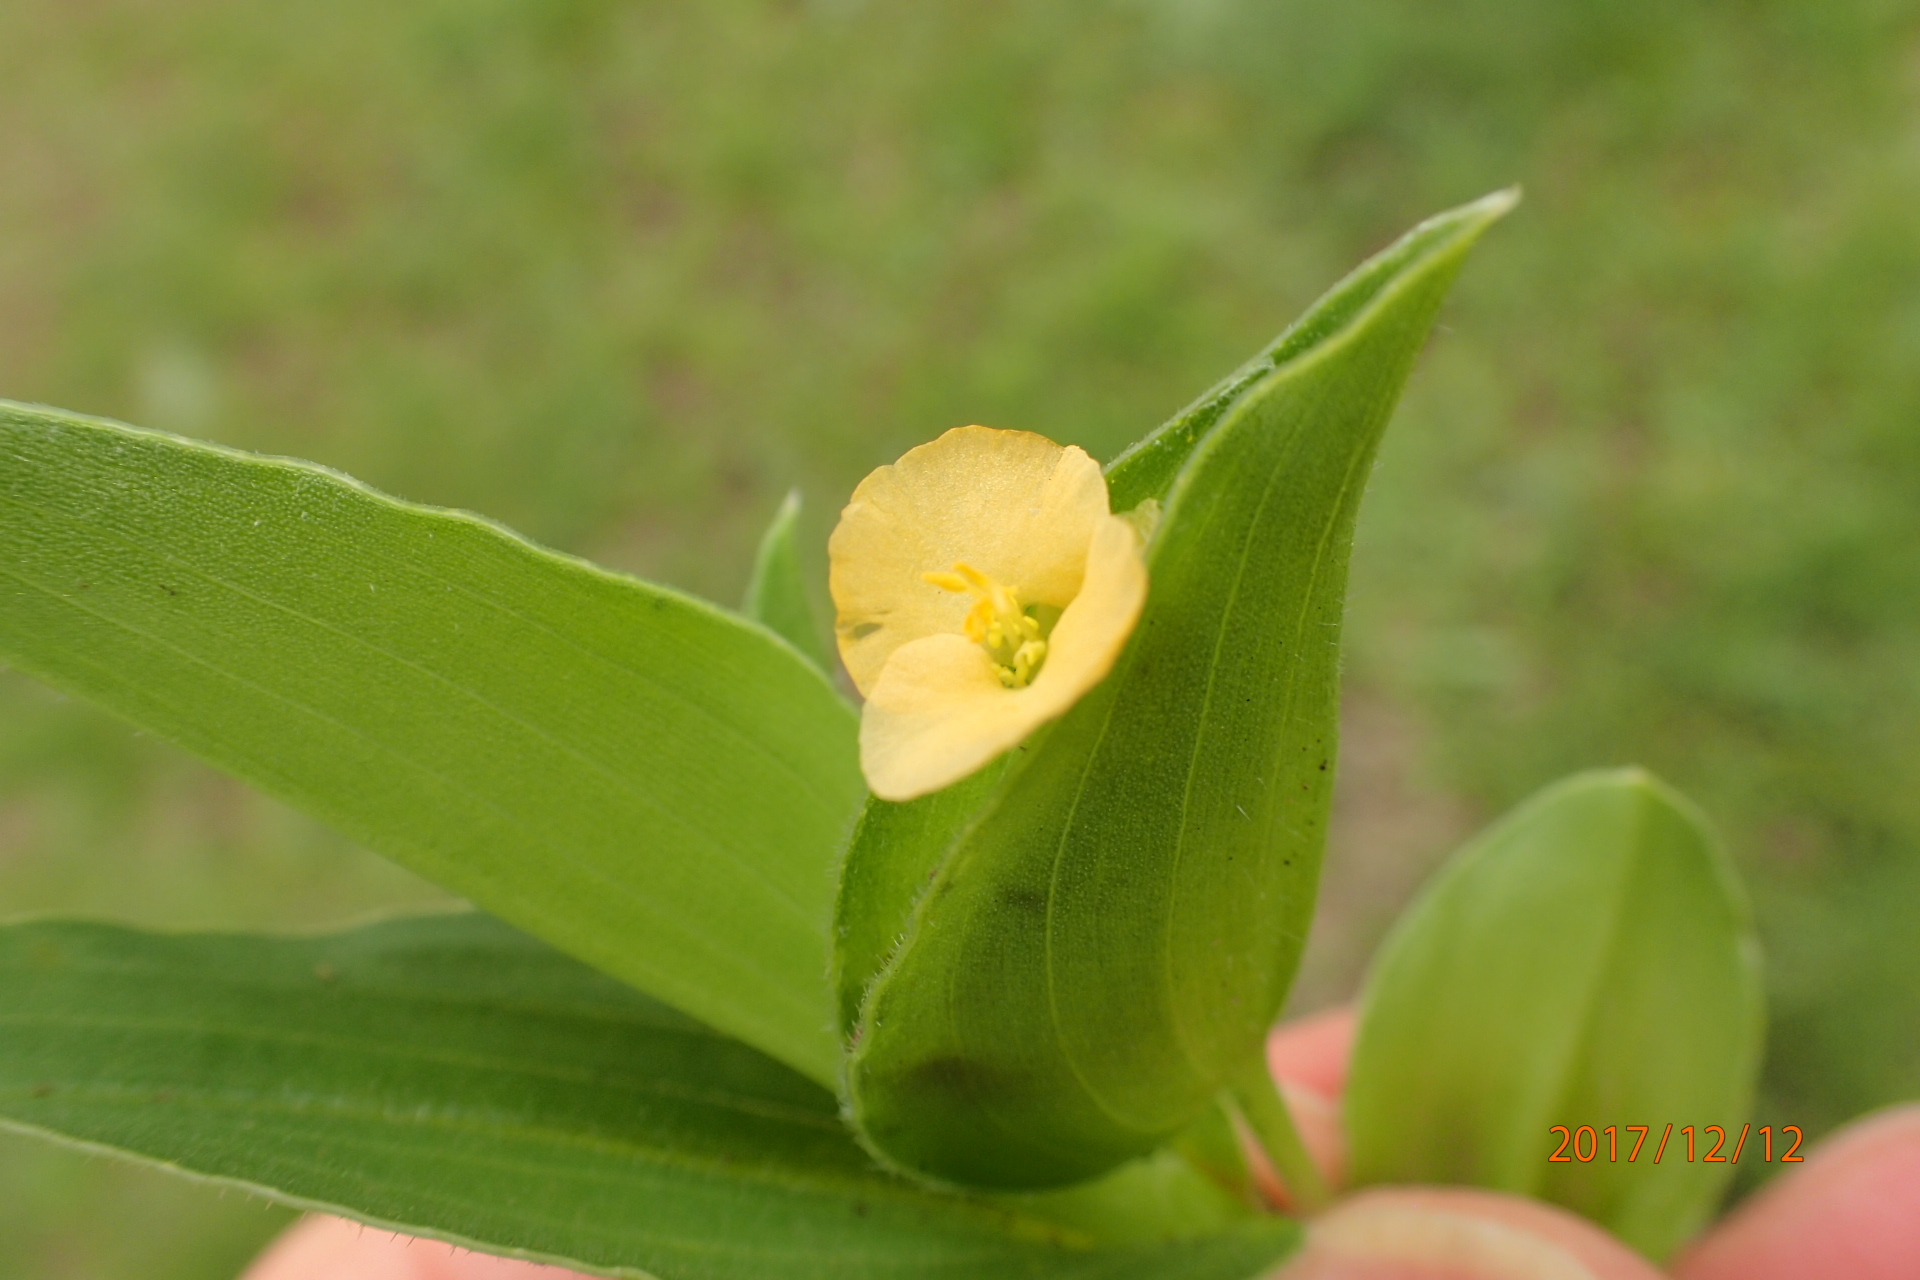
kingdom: Plantae
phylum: Tracheophyta
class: Liliopsida
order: Commelinales
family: Commelinaceae
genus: Commelina
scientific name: Commelina africana
